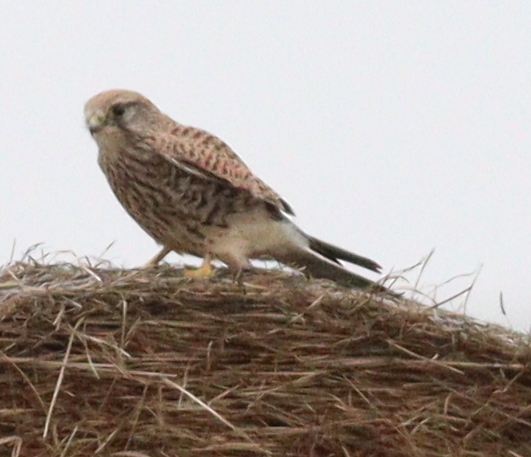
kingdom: Animalia
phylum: Chordata
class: Aves
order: Falconiformes
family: Falconidae
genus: Falco
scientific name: Falco tinnunculus
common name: Common kestrel
